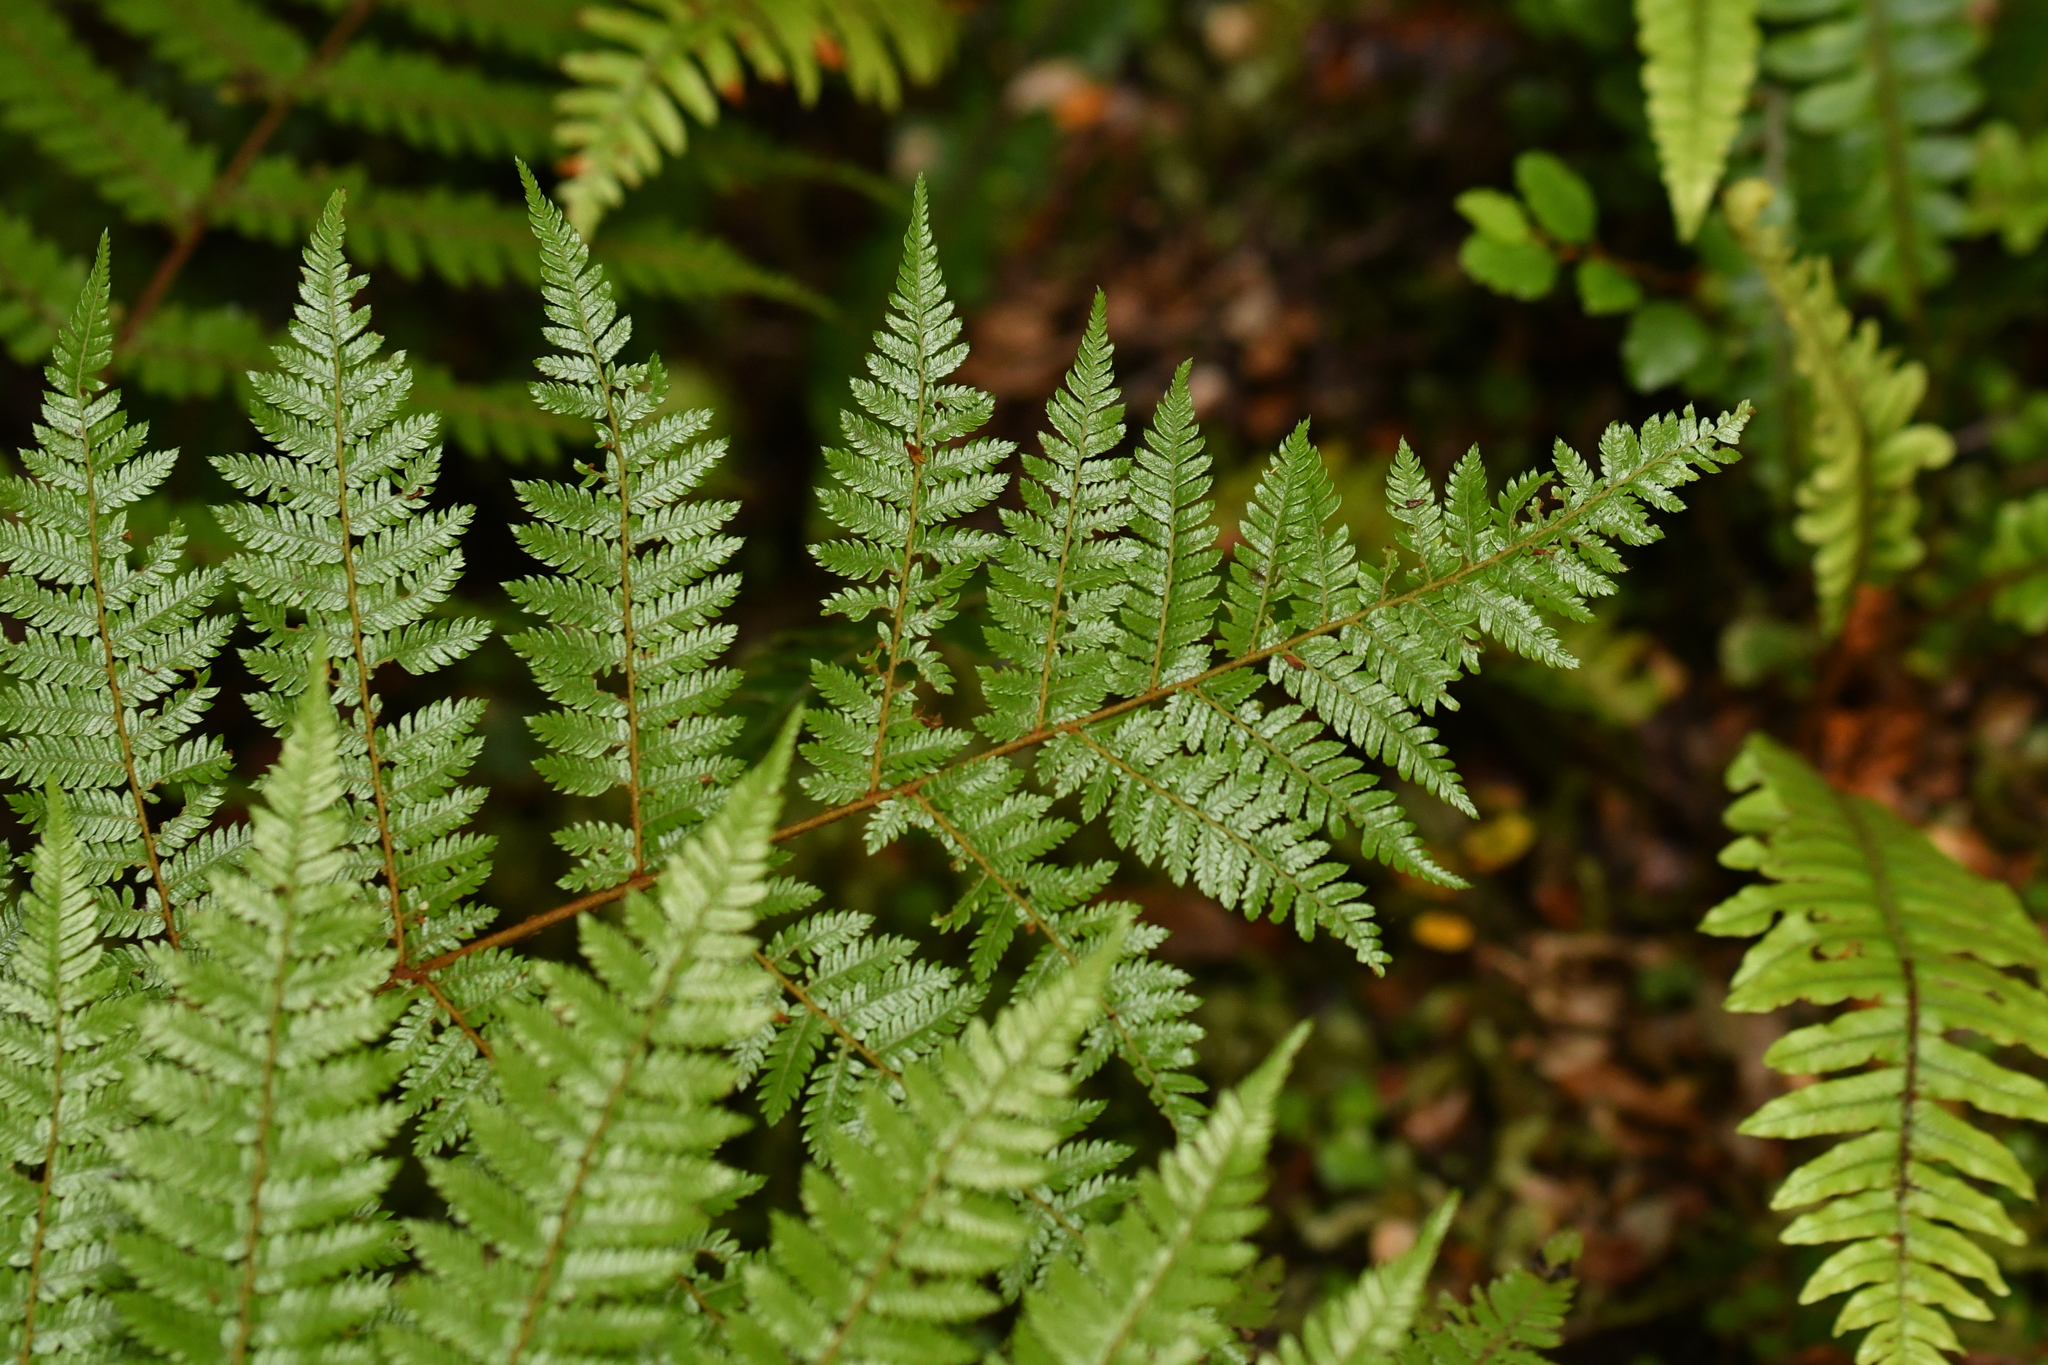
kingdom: Plantae
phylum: Tracheophyta
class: Polypodiopsida
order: Cyatheales
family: Cyatheaceae
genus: Alsophila
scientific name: Alsophila smithii
